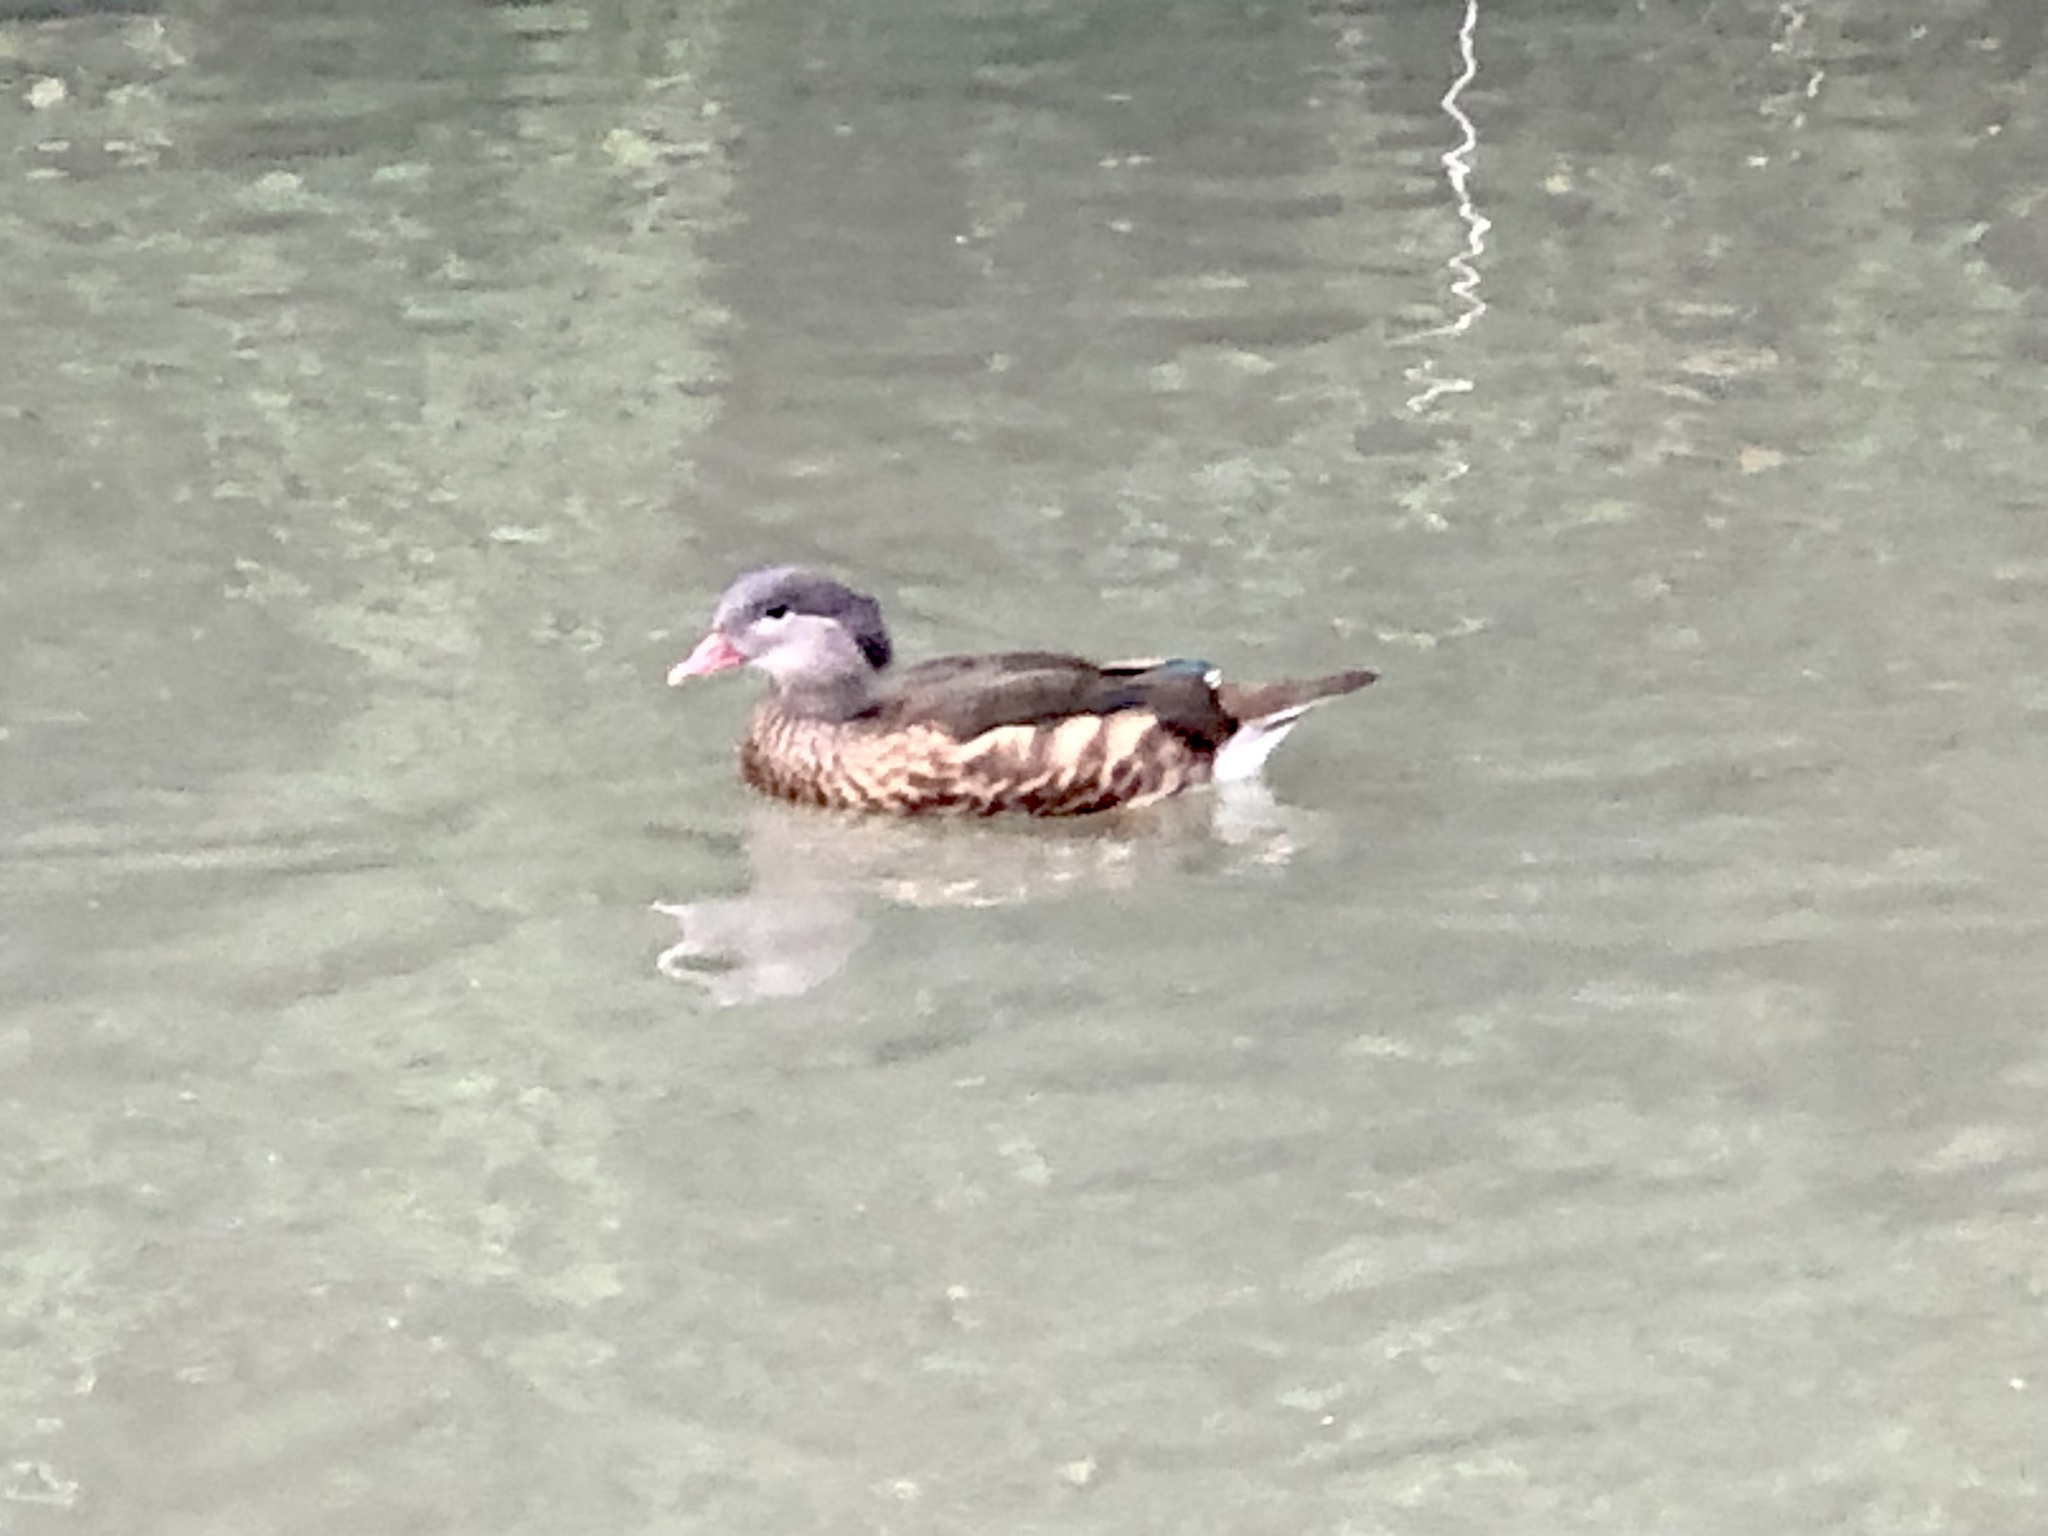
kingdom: Animalia
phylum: Chordata
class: Aves
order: Anseriformes
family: Anatidae
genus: Aix
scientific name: Aix galericulata
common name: Mandarin duck
